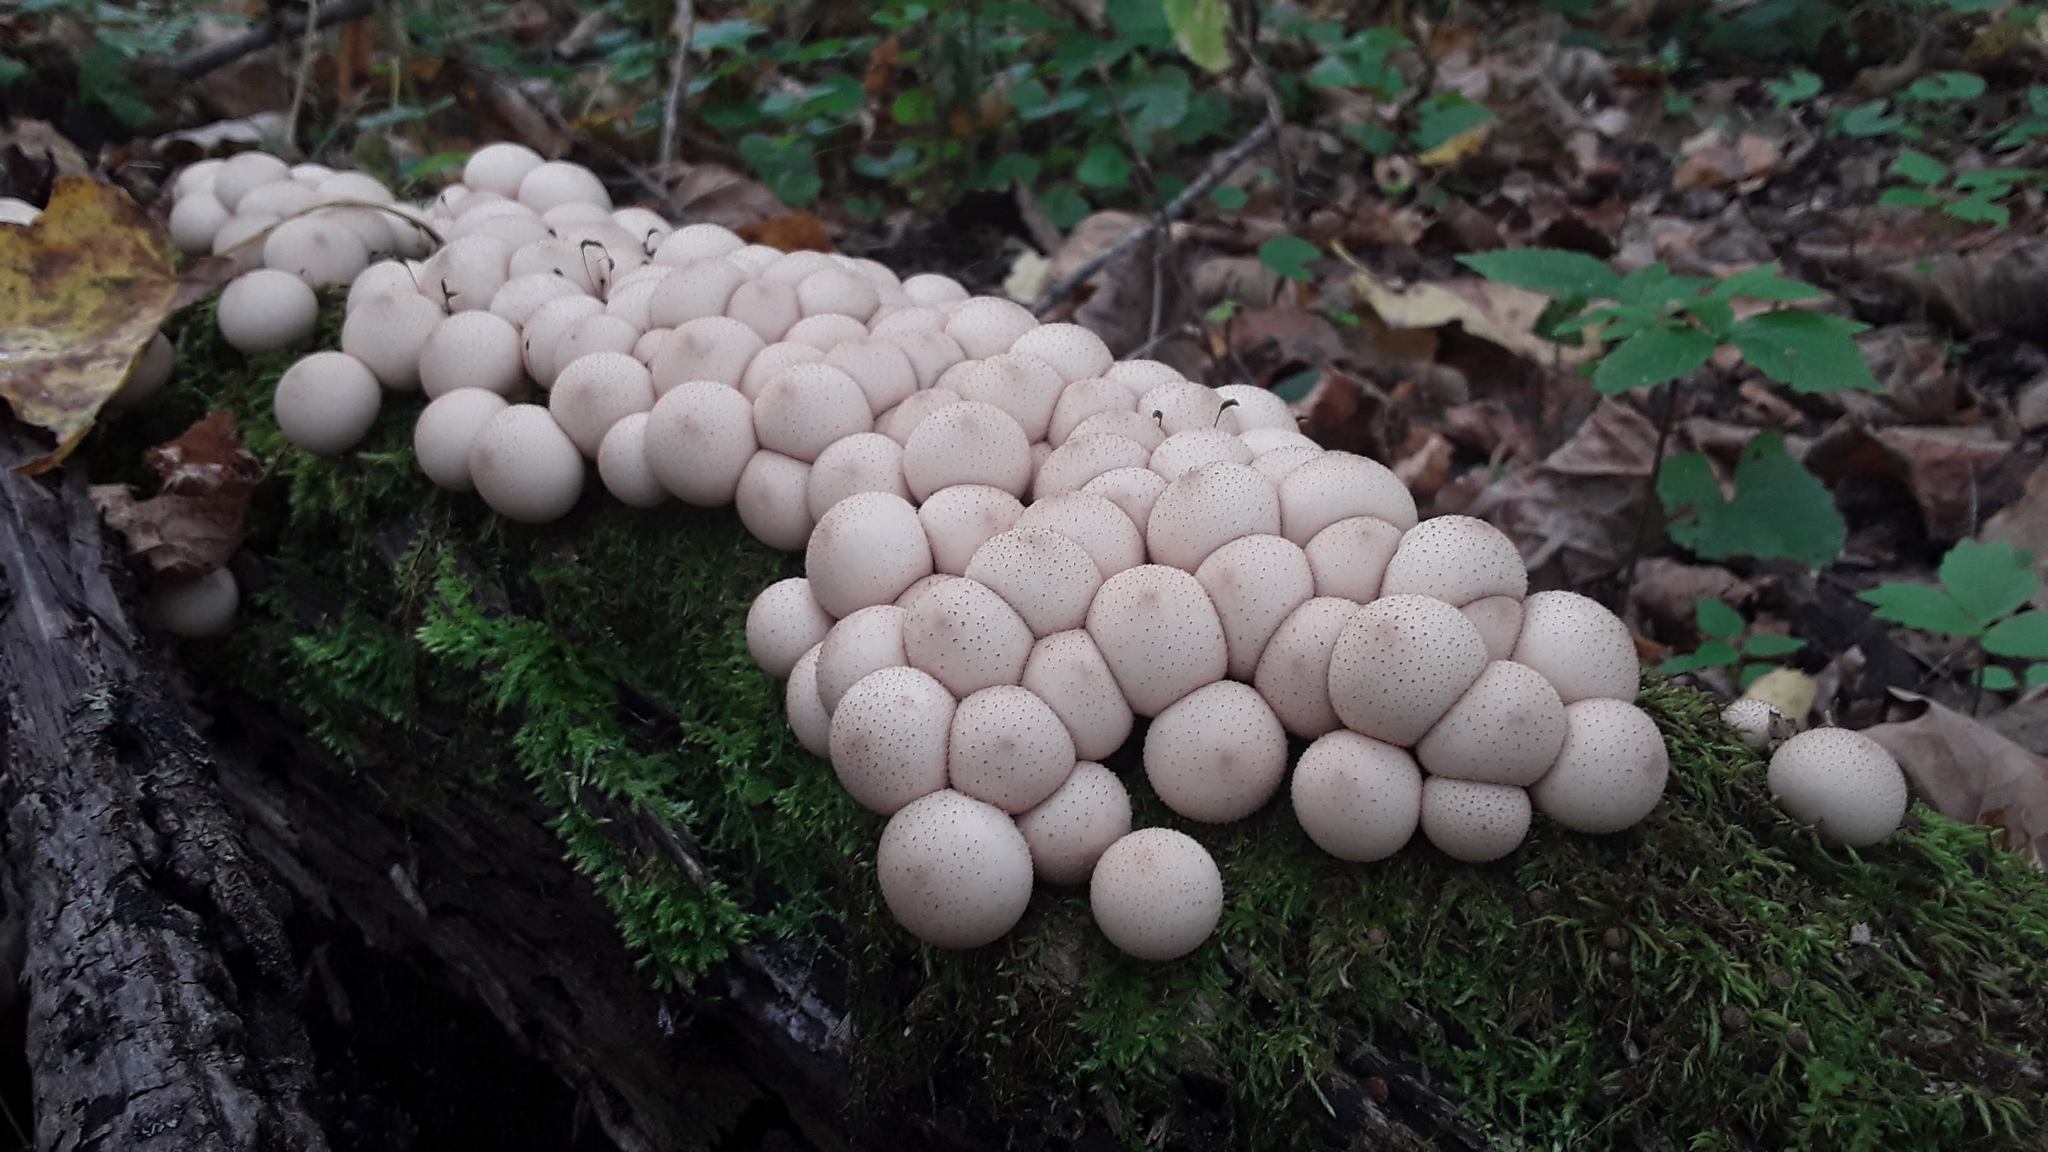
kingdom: Fungi
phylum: Basidiomycota
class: Agaricomycetes
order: Agaricales
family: Lycoperdaceae
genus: Apioperdon
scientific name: Apioperdon pyriforme
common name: Pear-shaped puffball
